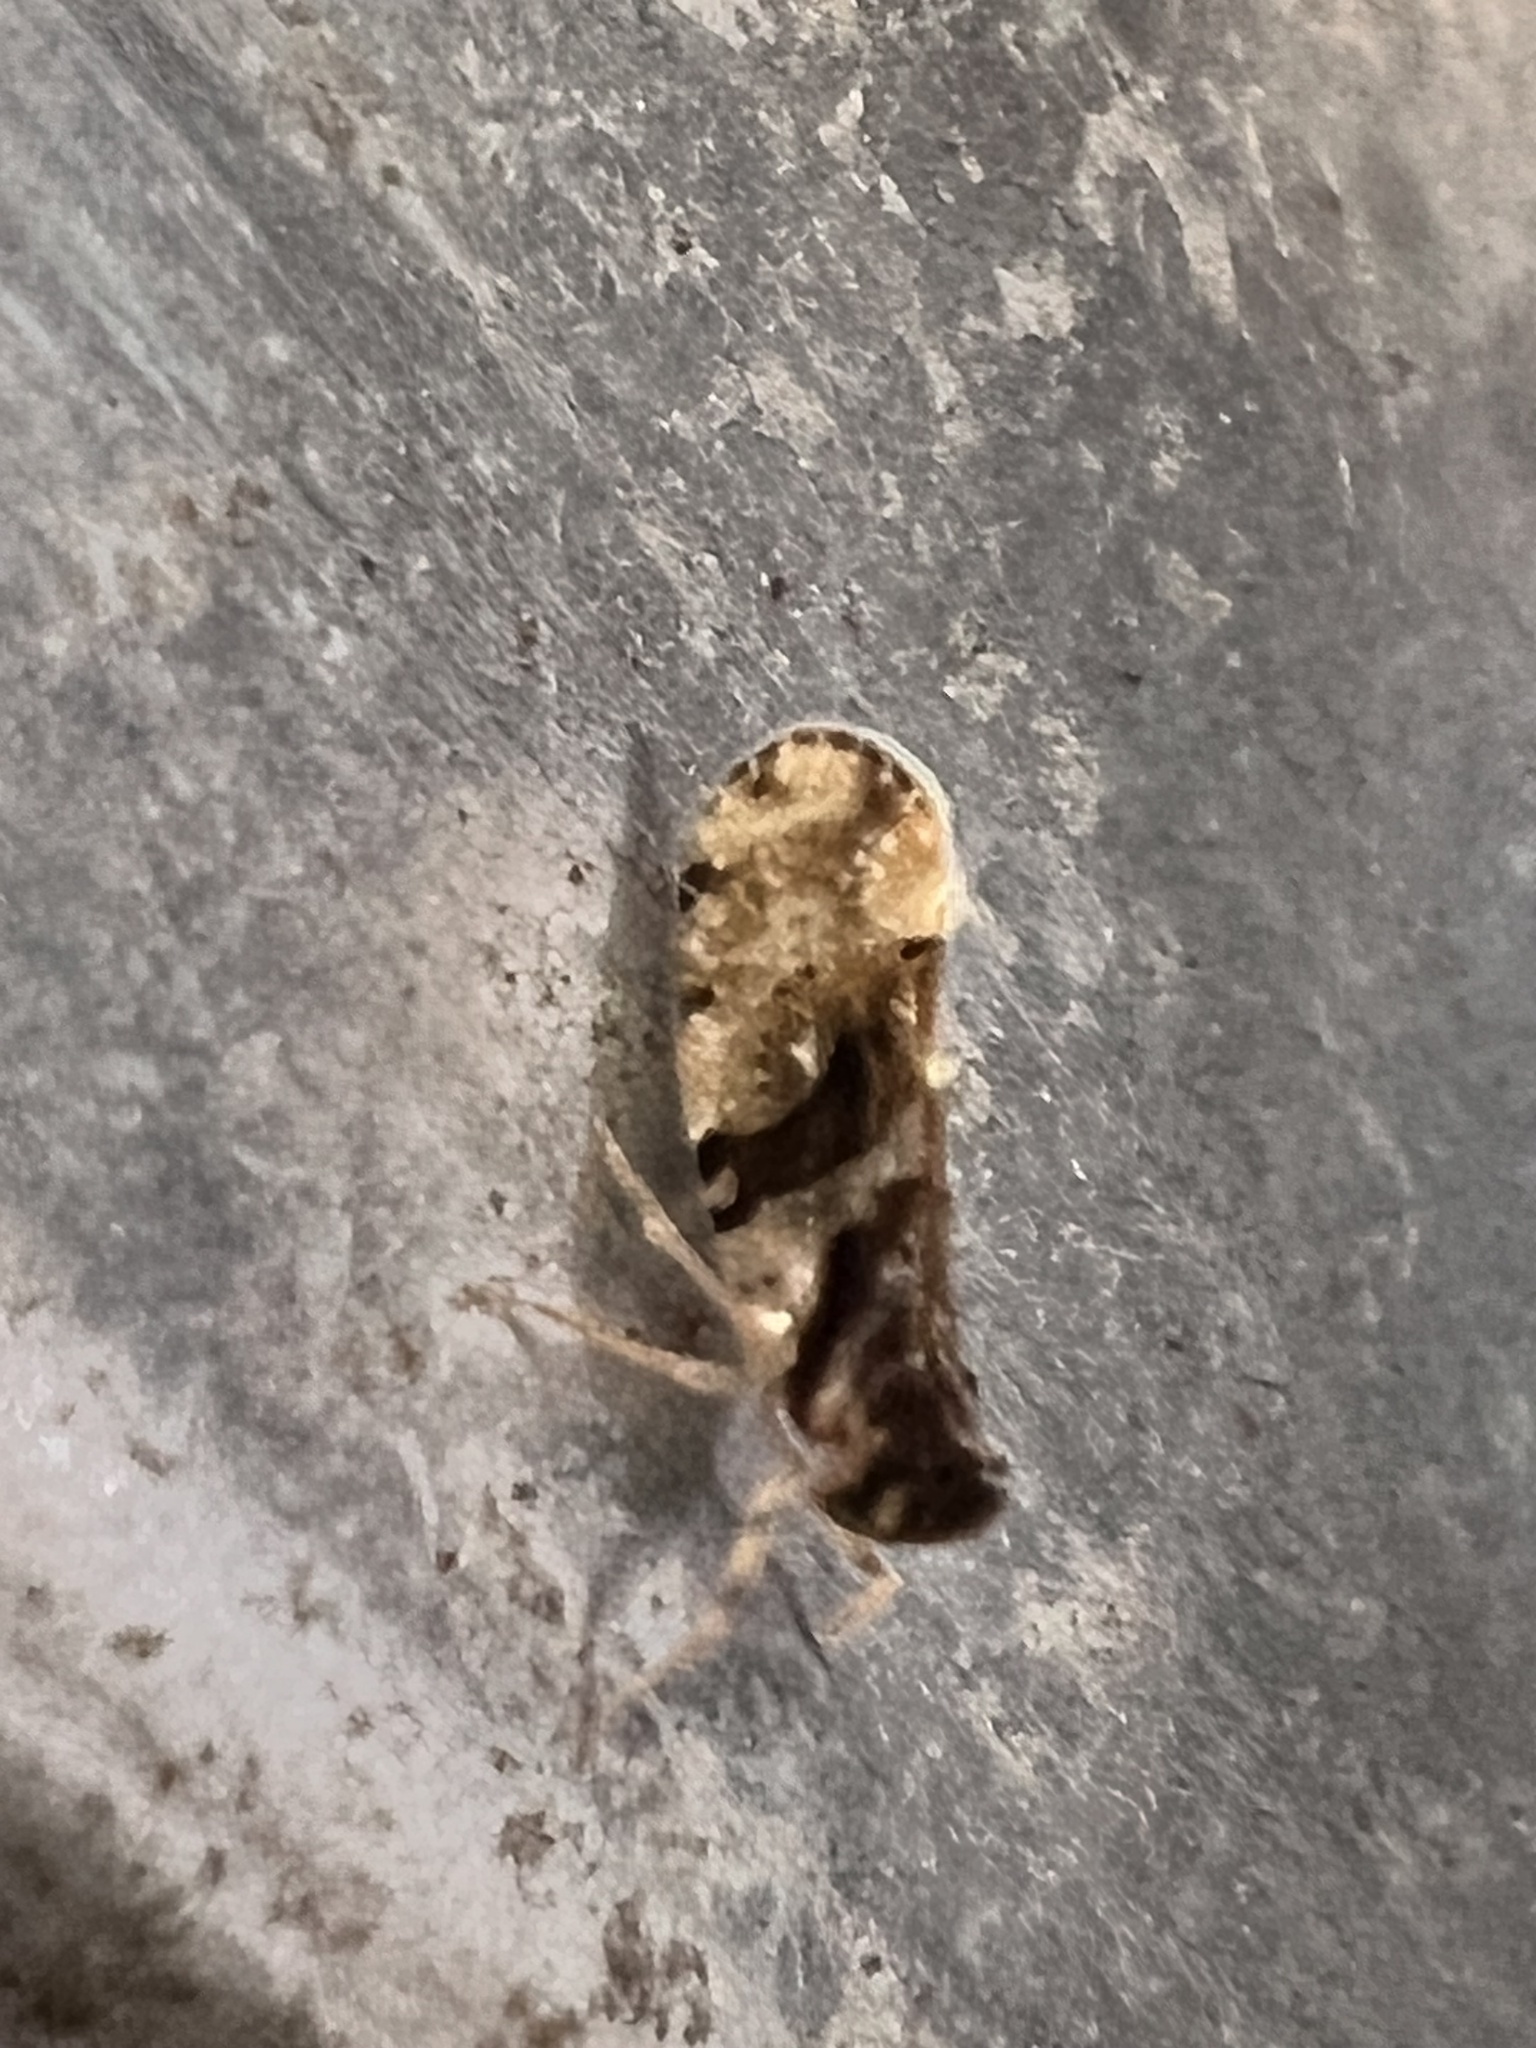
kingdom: Animalia
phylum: Arthropoda
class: Insecta
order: Hemiptera
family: Cixiidae
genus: Andes
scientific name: Andes migratorius
